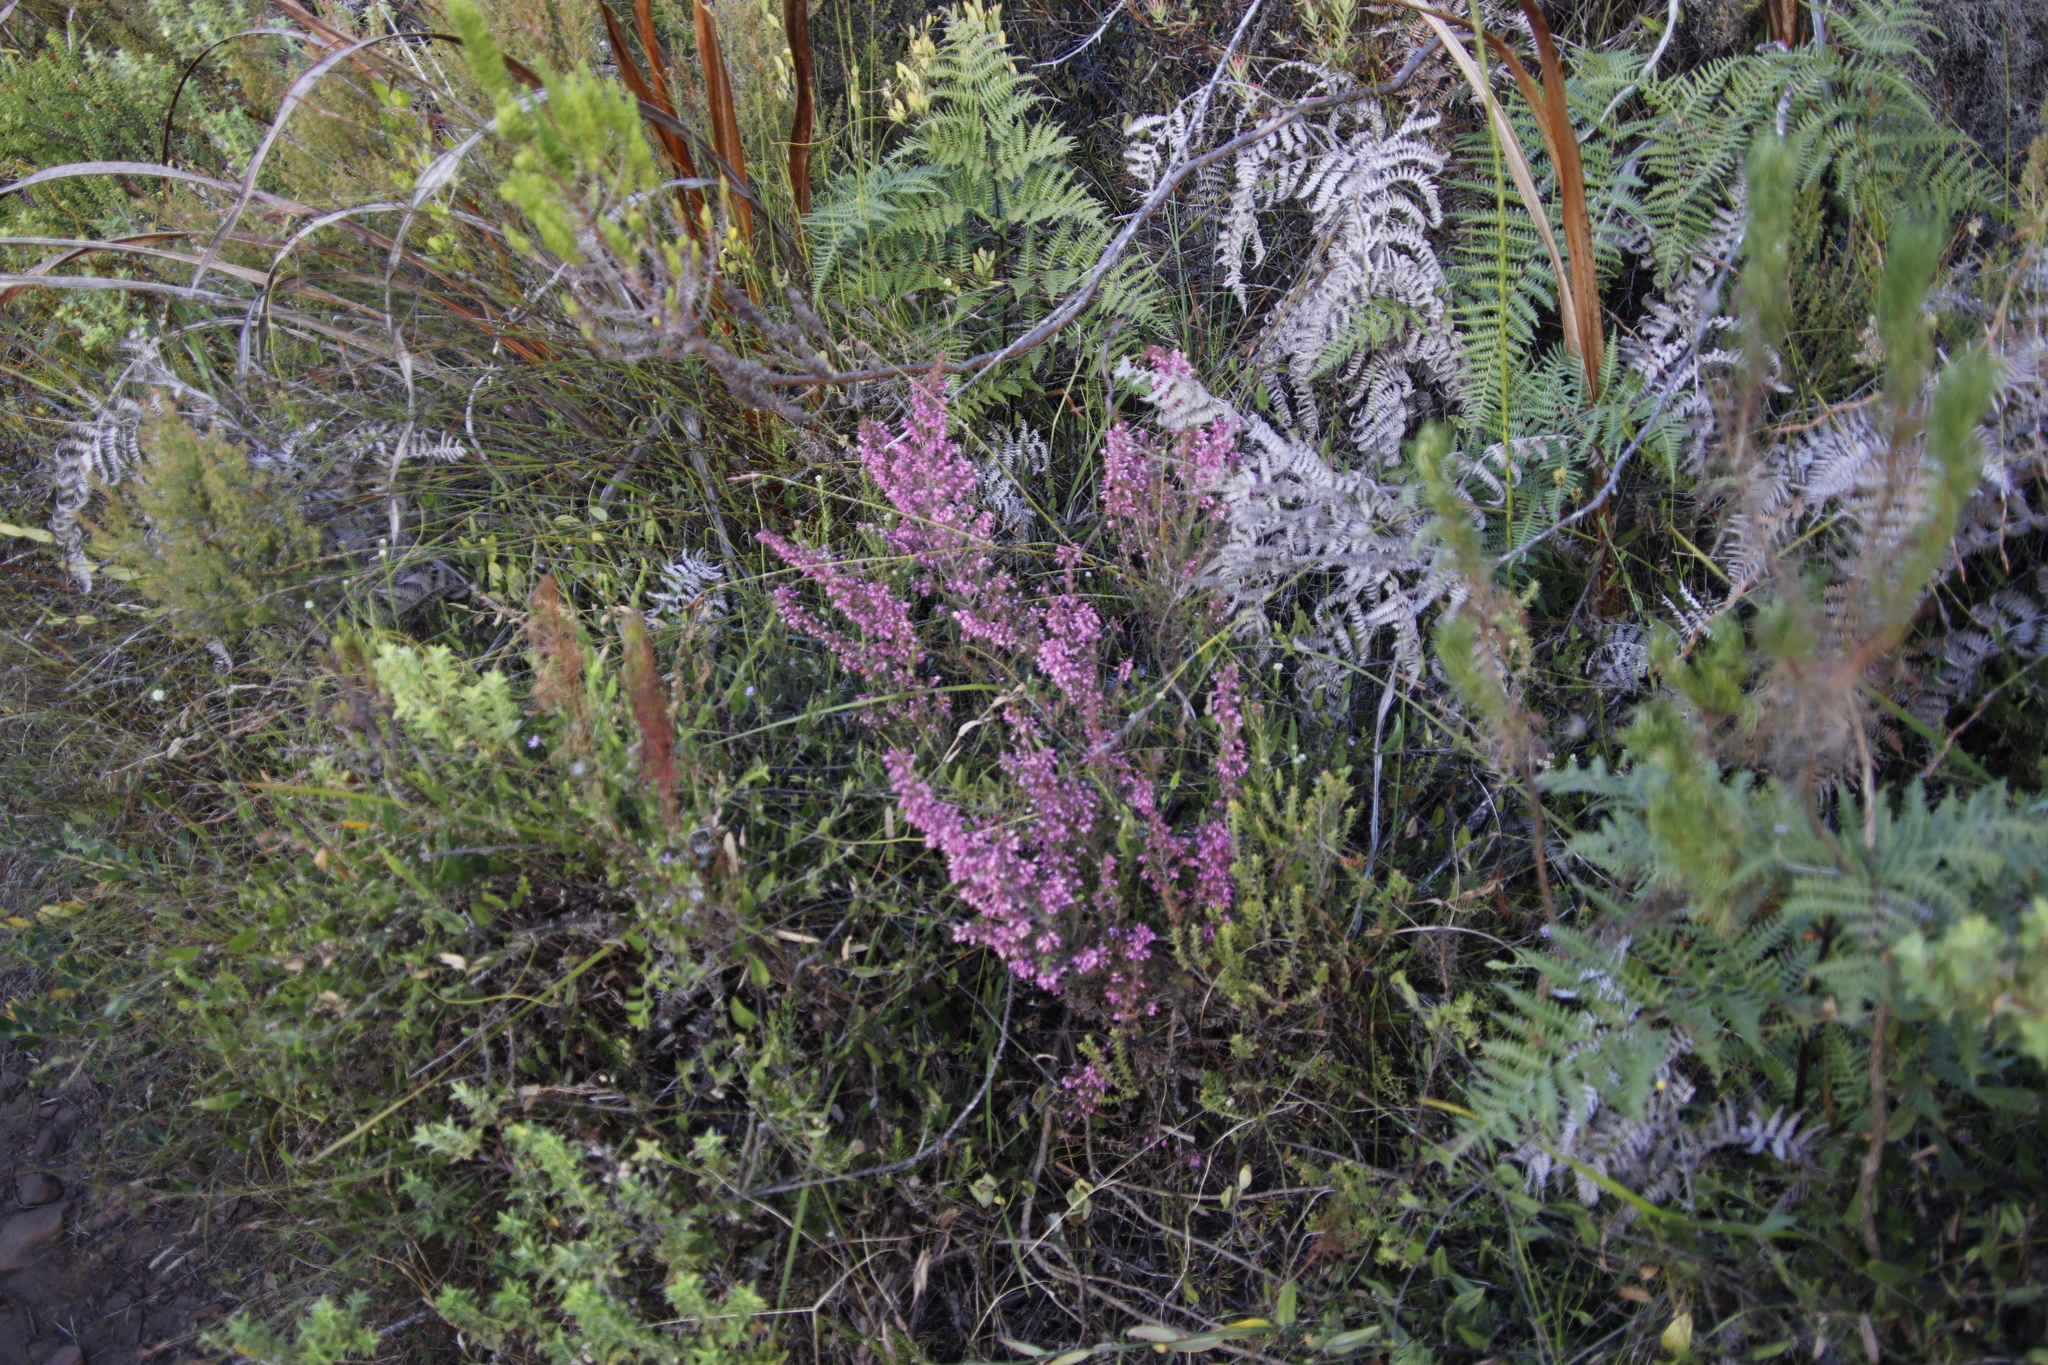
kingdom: Plantae
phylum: Tracheophyta
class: Magnoliopsida
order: Ericales
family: Ericaceae
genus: Erica
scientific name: Erica nudiflora
